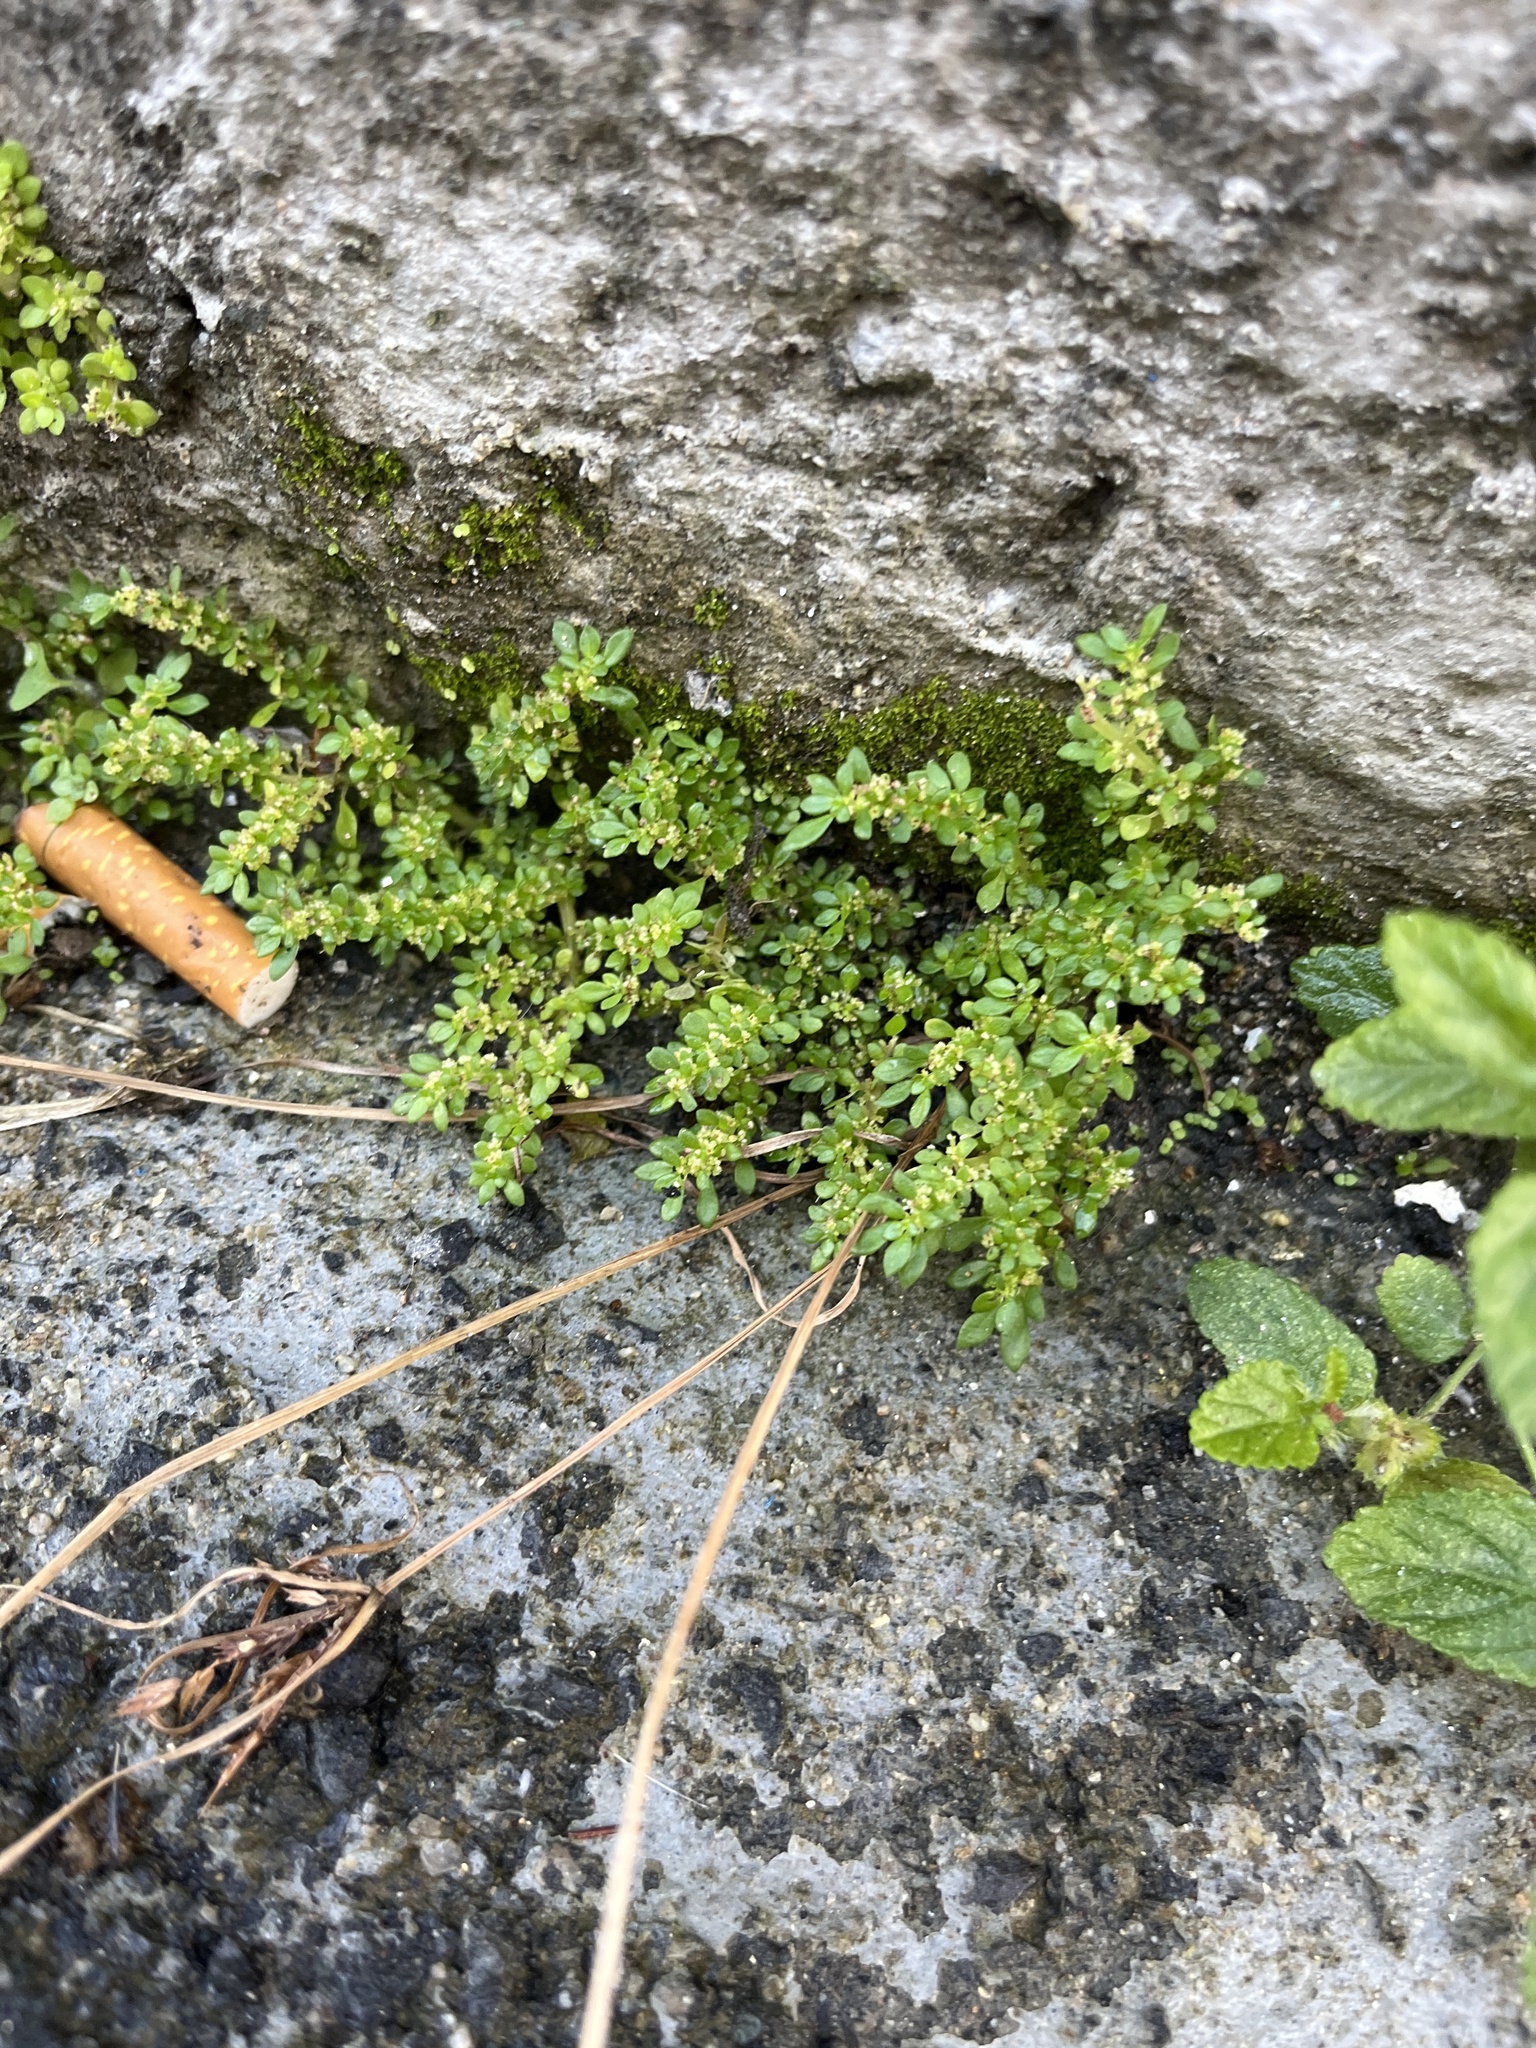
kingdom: Plantae
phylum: Tracheophyta
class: Magnoliopsida
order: Rosales
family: Urticaceae
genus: Pilea
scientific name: Pilea microphylla
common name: Artillery-plant
